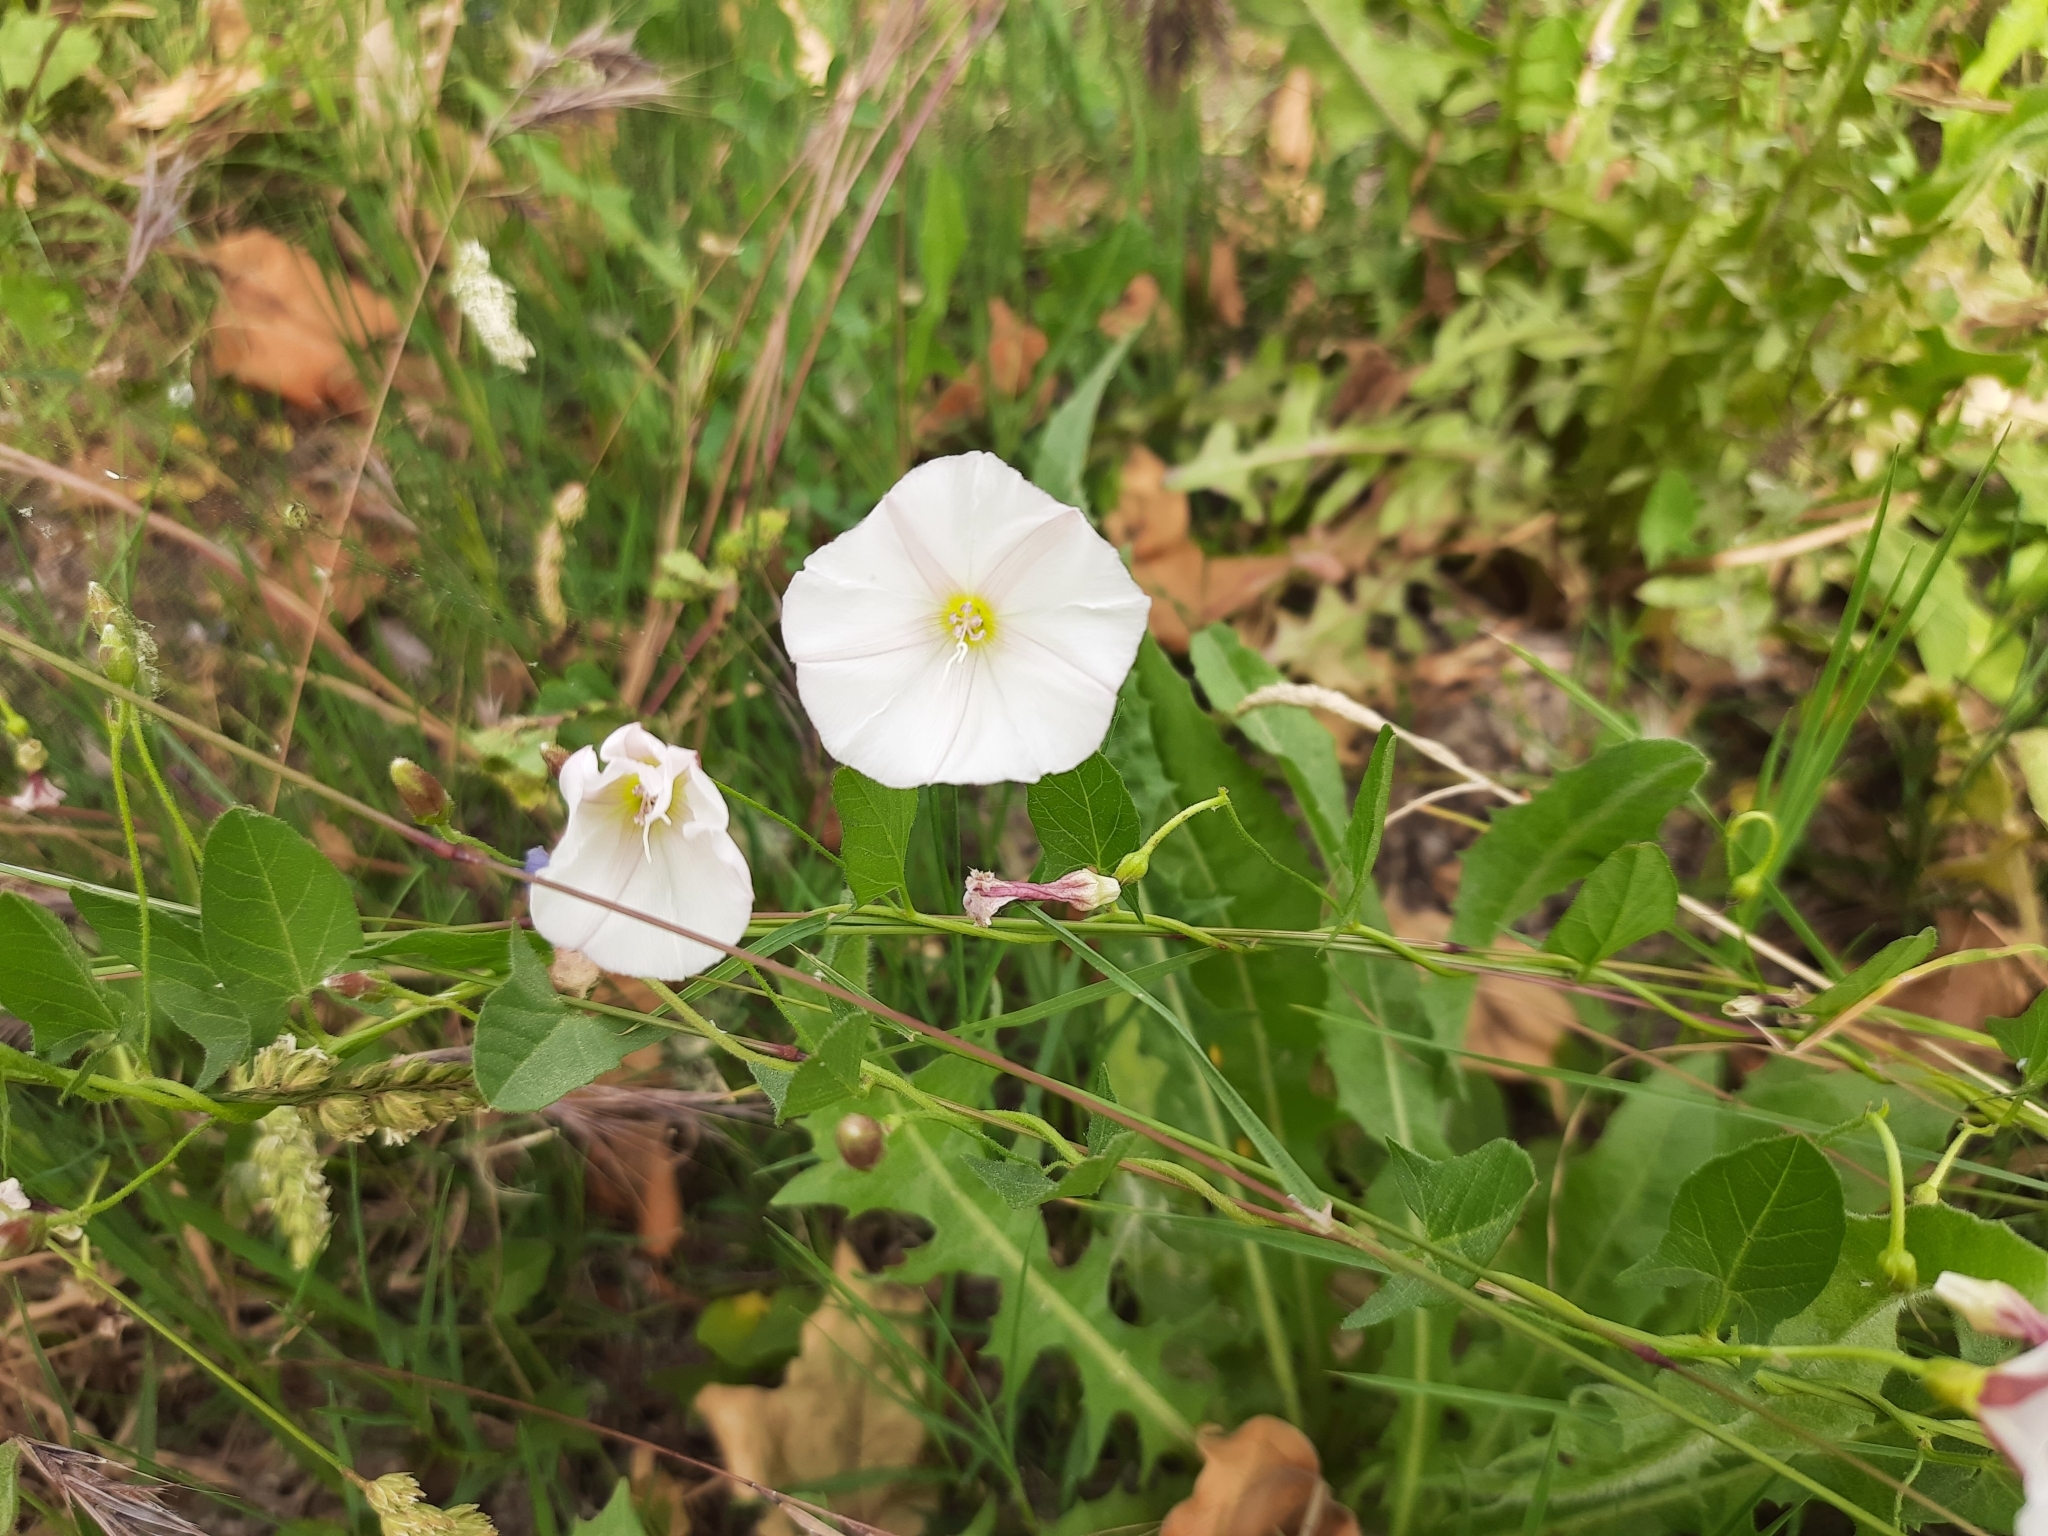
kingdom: Plantae
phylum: Tracheophyta
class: Magnoliopsida
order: Solanales
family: Convolvulaceae
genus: Convolvulus
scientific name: Convolvulus arvensis
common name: Field bindweed
